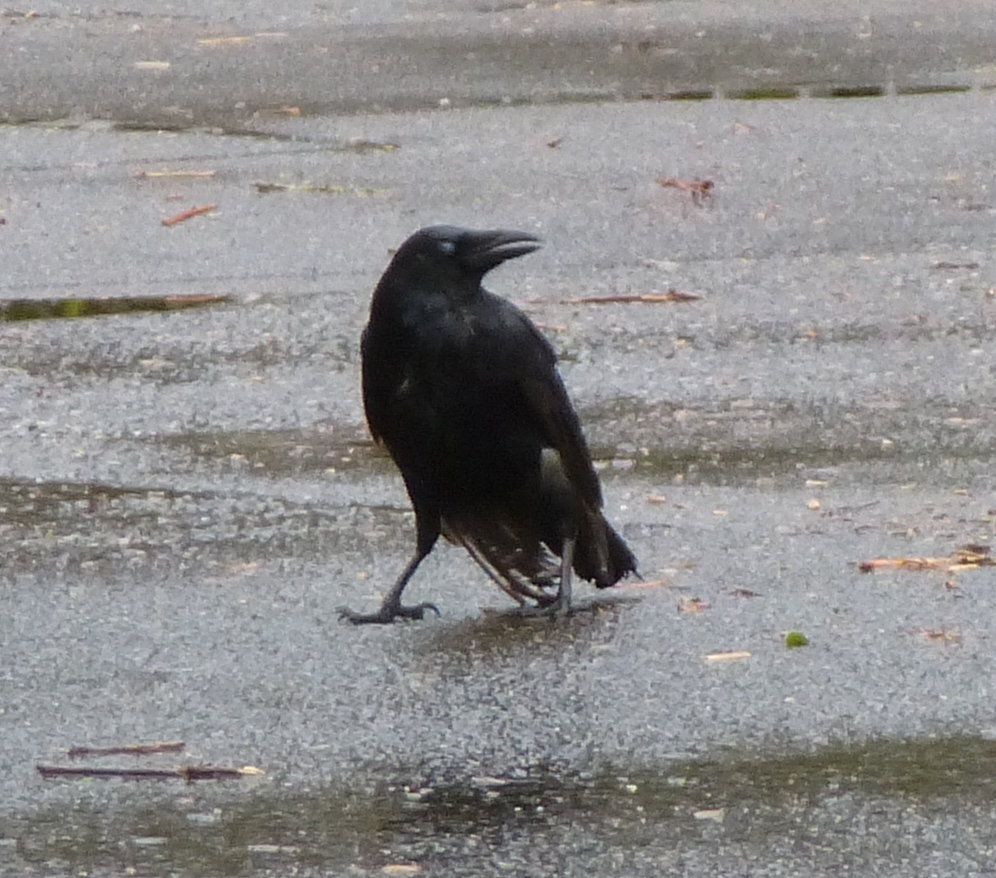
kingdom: Animalia
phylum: Chordata
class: Aves
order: Passeriformes
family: Corvidae
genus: Corvus
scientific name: Corvus corone
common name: Carrion crow
